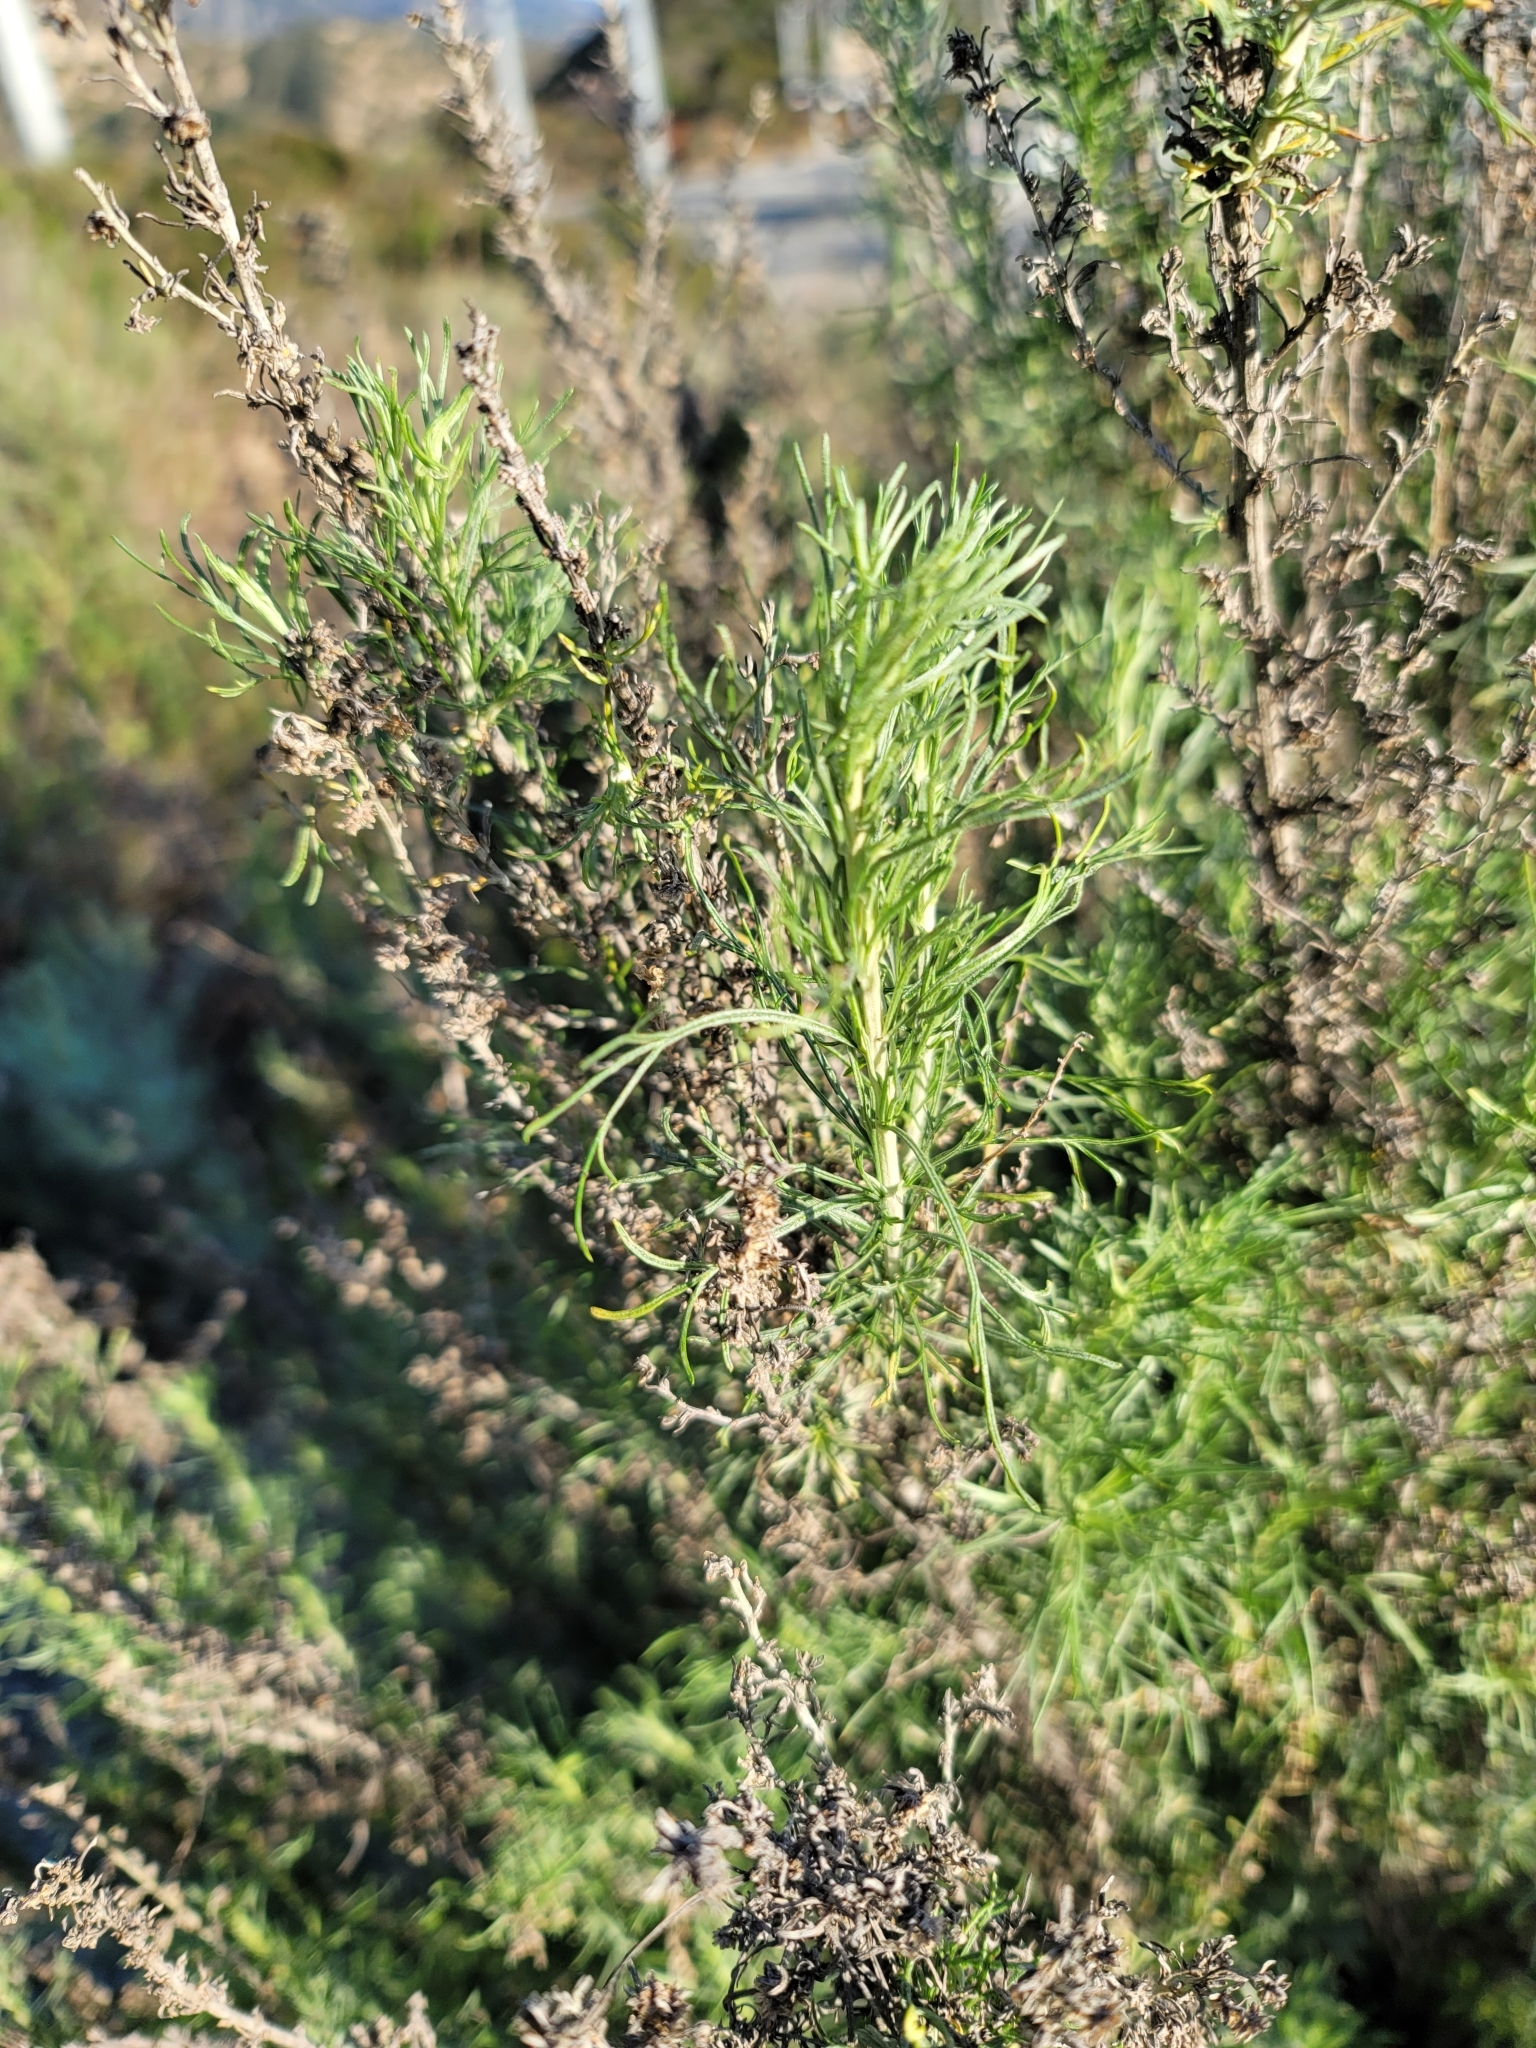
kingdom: Plantae
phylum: Tracheophyta
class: Magnoliopsida
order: Asterales
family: Asteraceae
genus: Artemisia
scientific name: Artemisia californica
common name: California sagebrush
